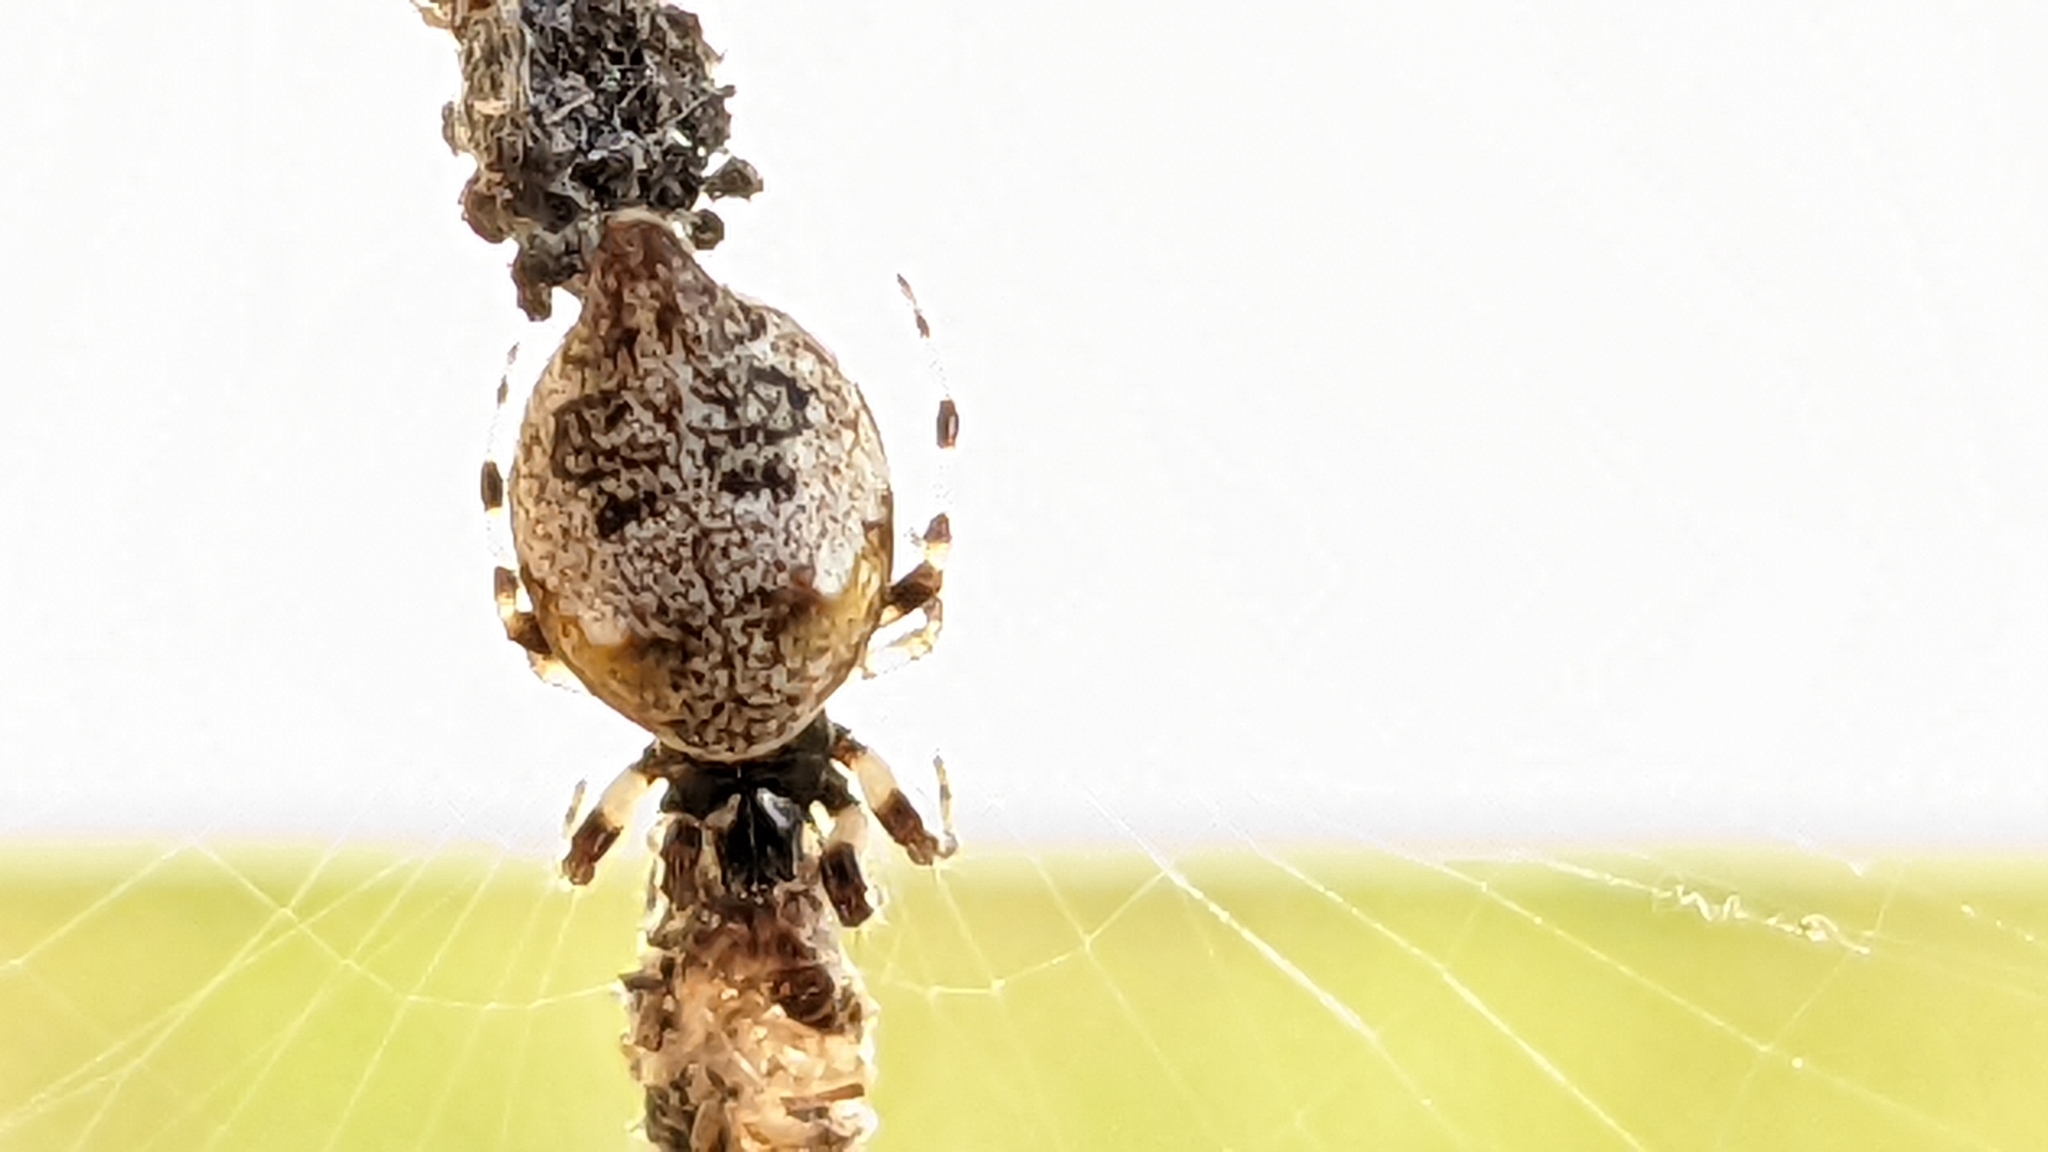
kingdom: Animalia
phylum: Arthropoda
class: Arachnida
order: Araneae
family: Araneidae
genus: Cyclosa
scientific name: Cyclosa turbinata
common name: Orb weavers
